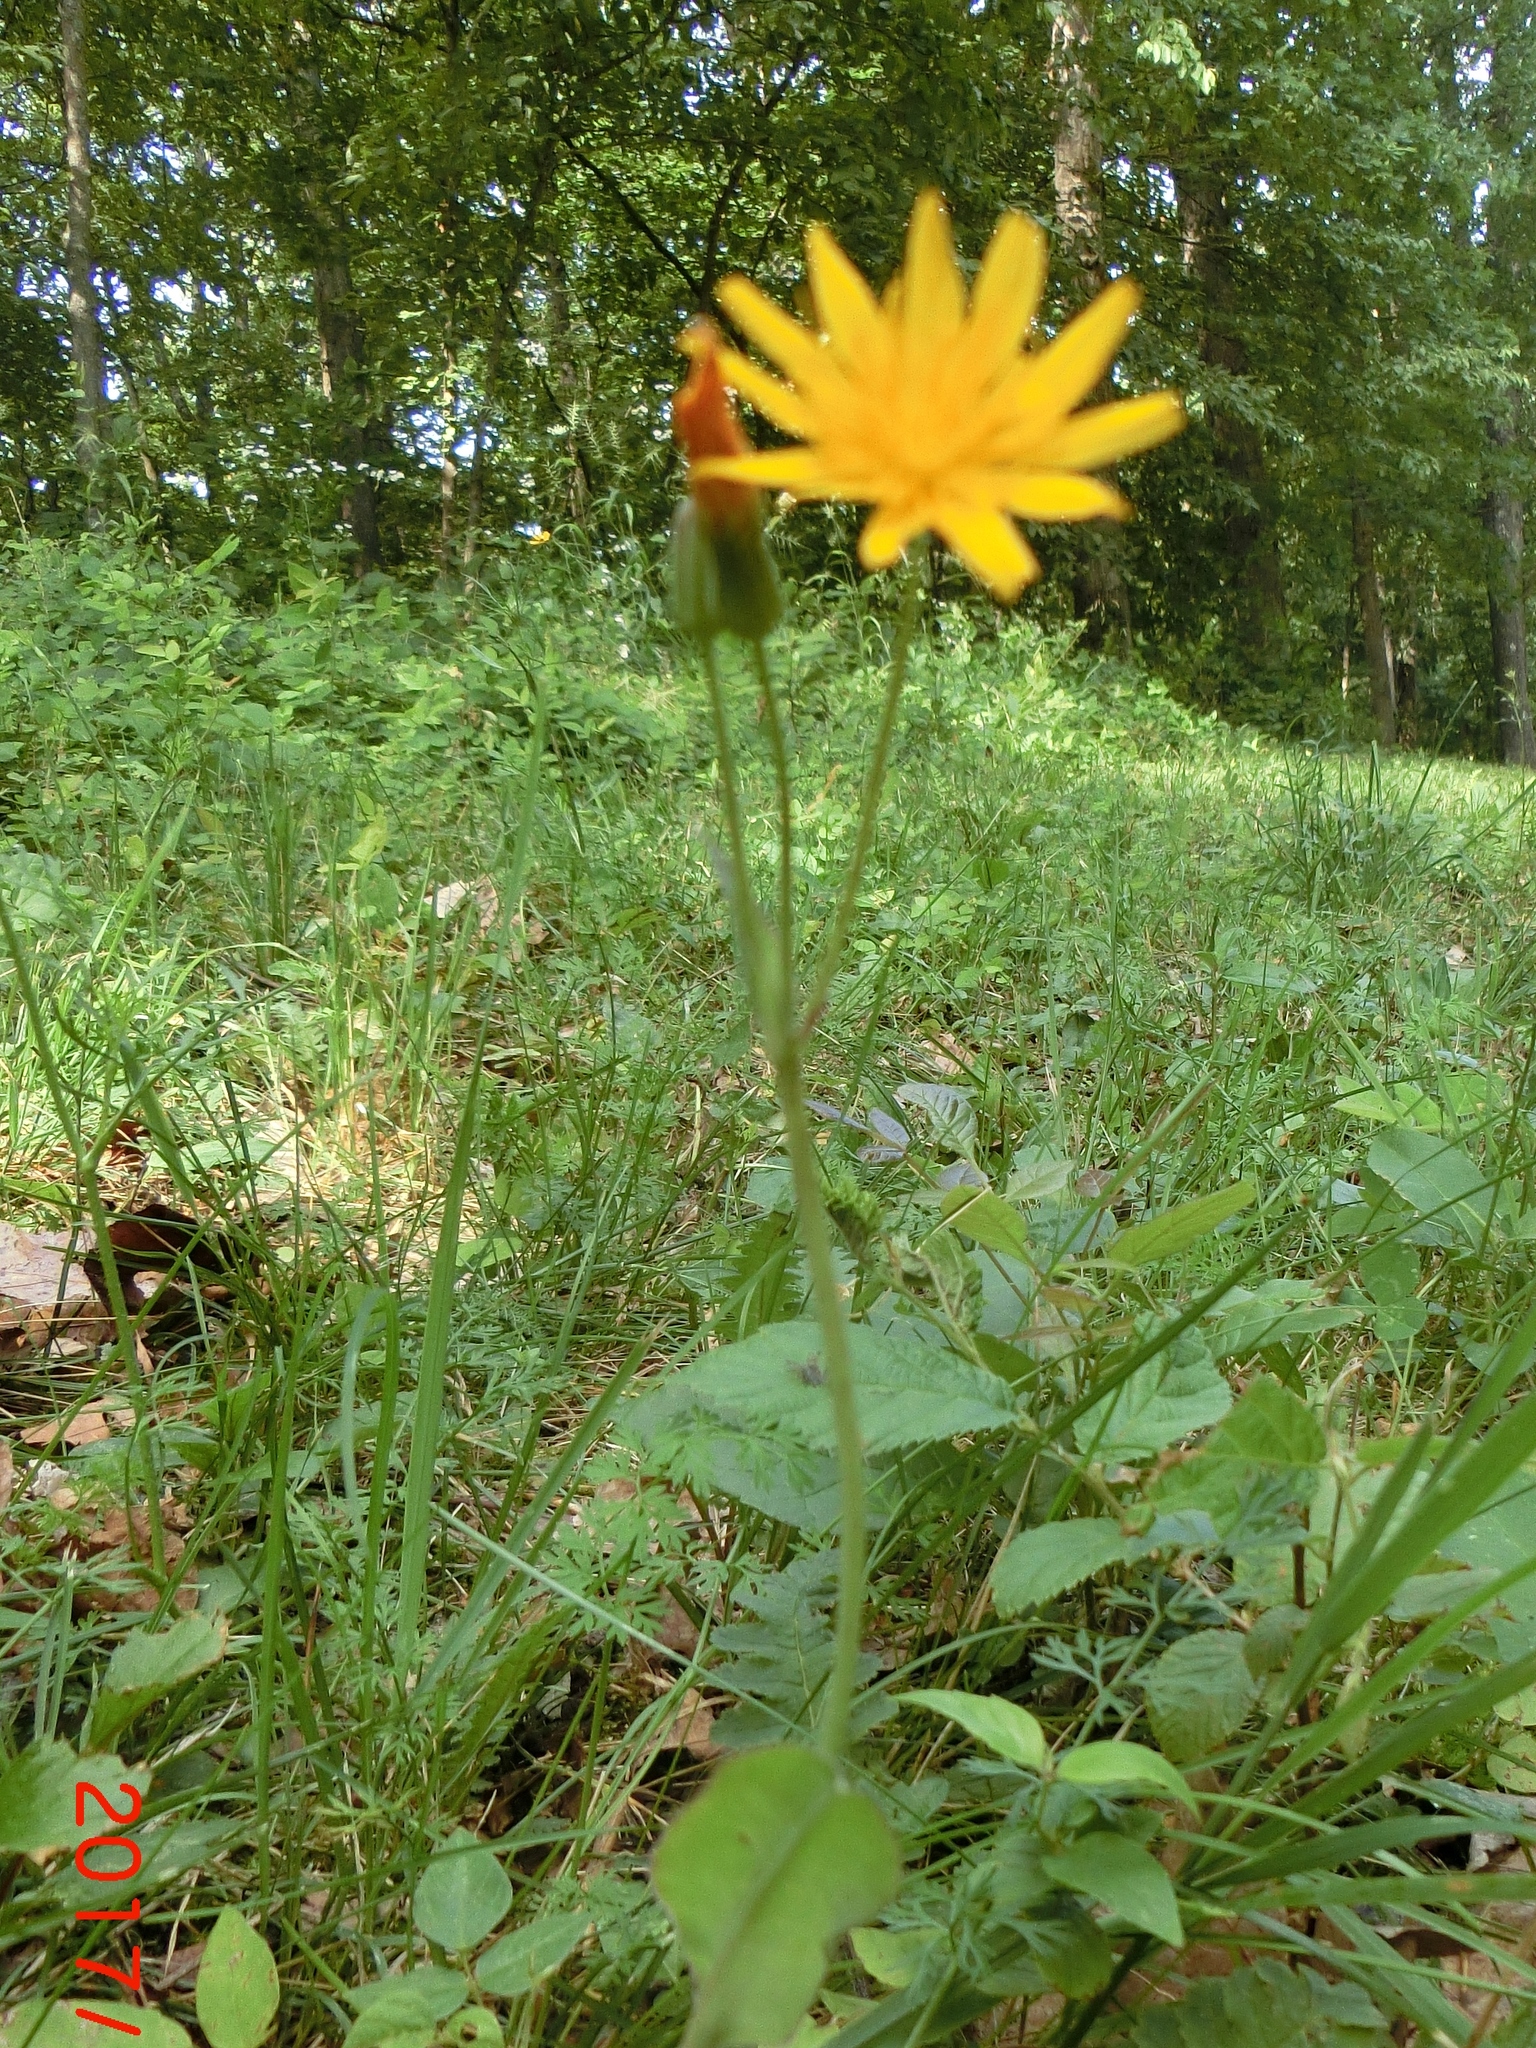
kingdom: Plantae
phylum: Tracheophyta
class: Magnoliopsida
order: Asterales
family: Asteraceae
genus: Krigia
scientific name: Krigia biflora
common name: Orange dwarf-dandelion
